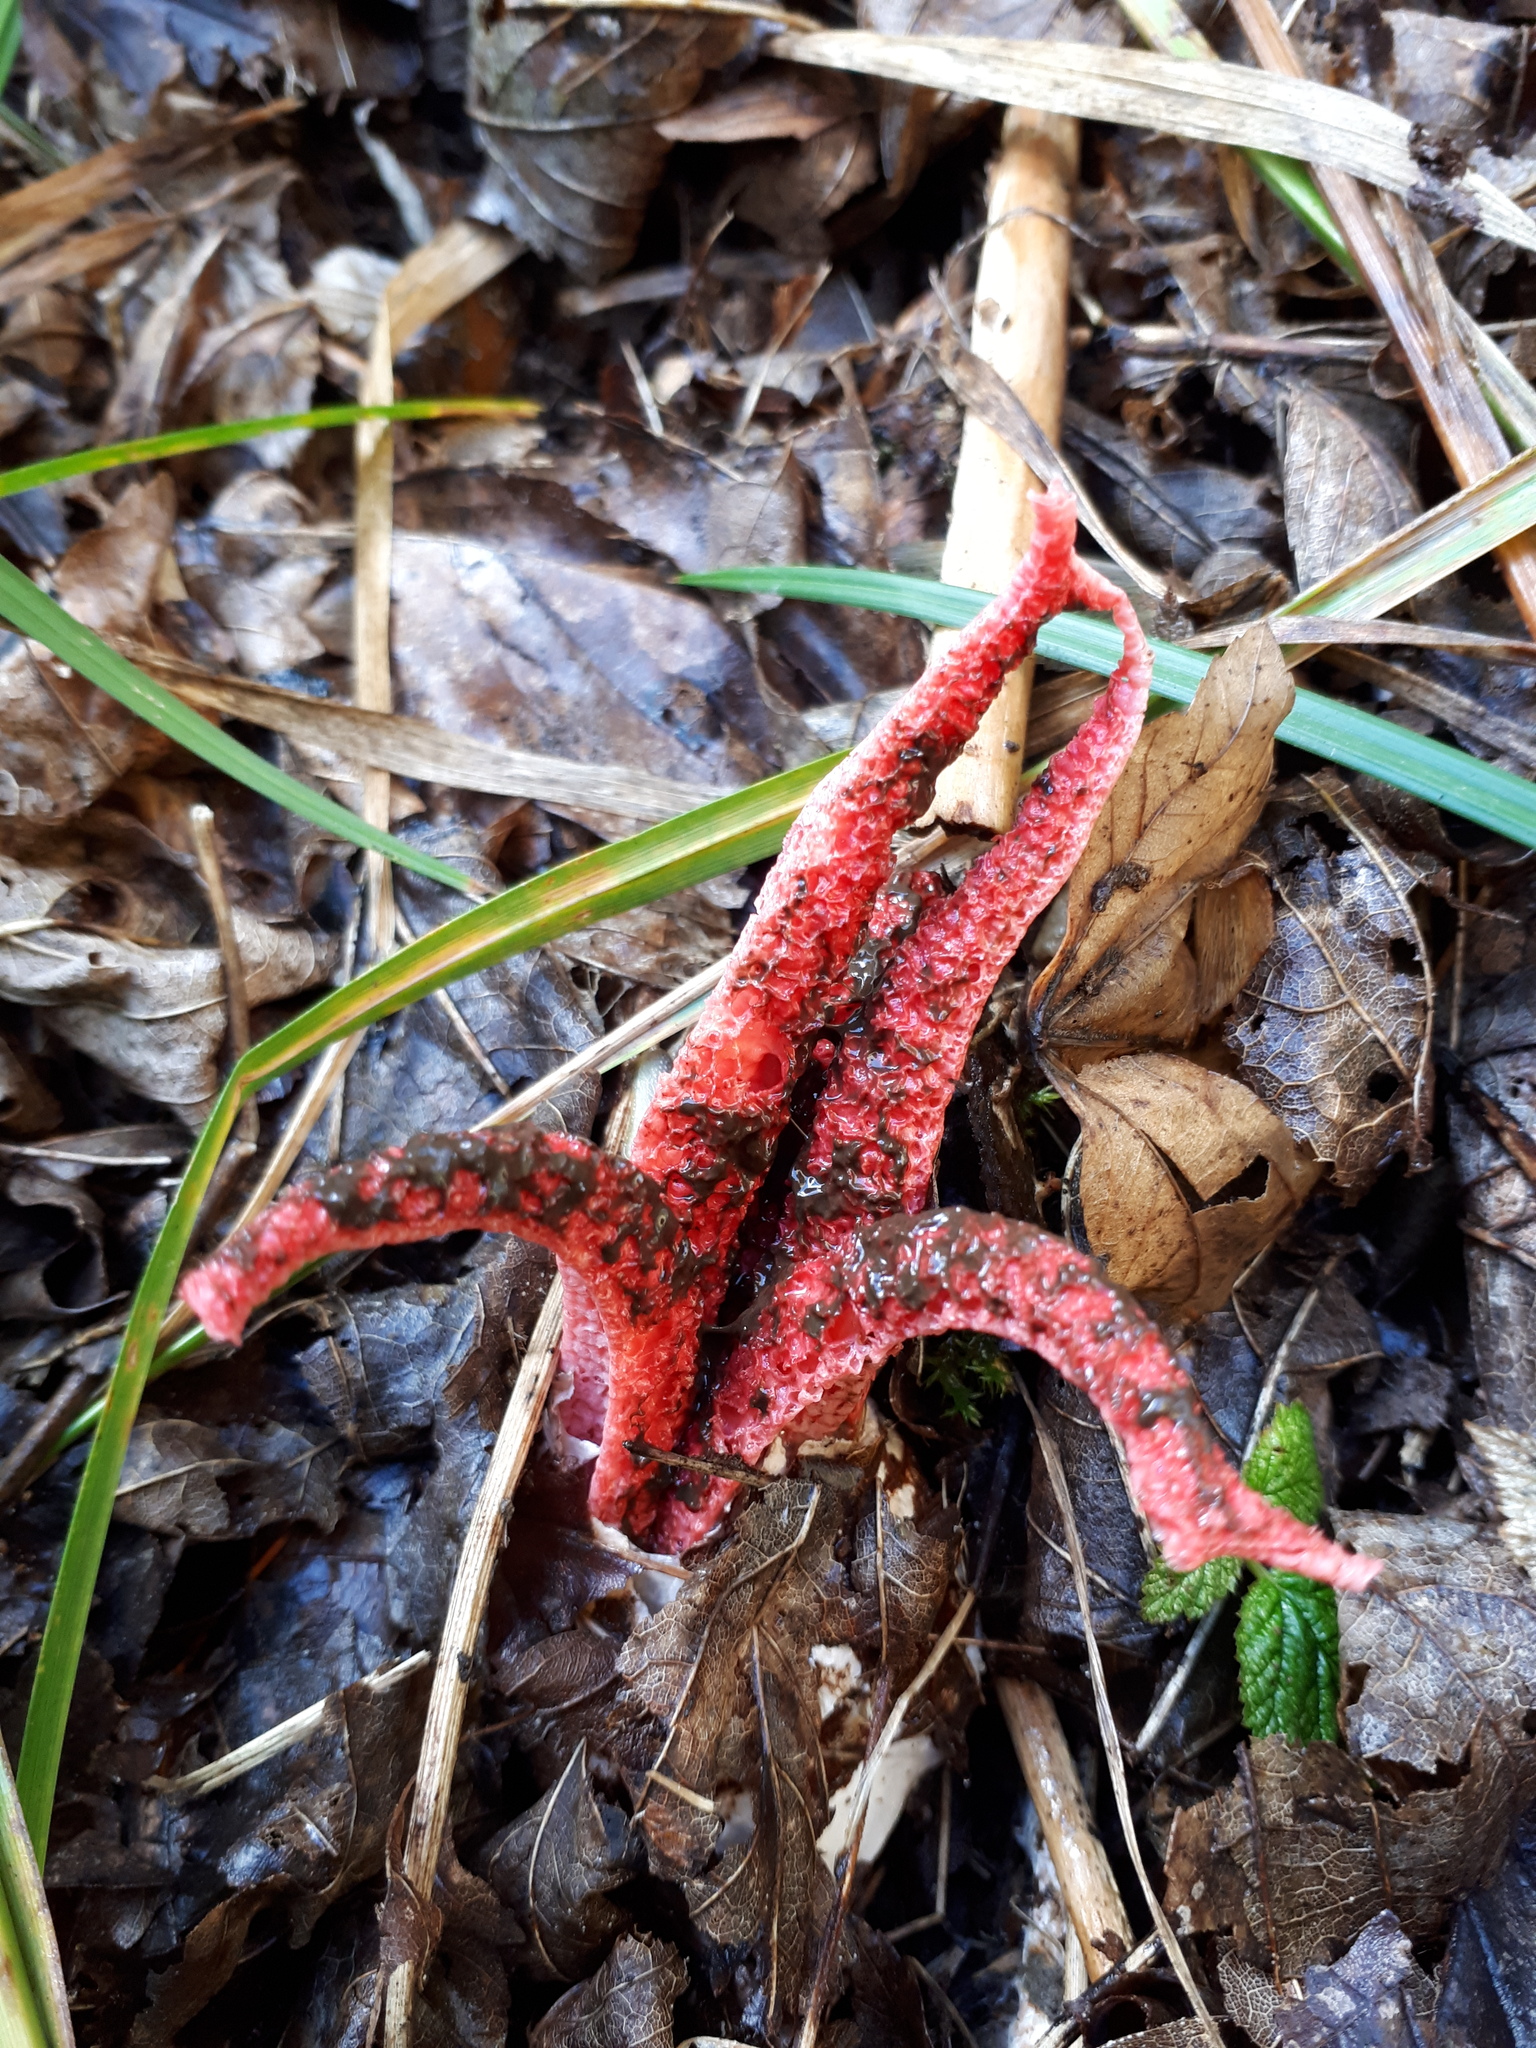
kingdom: Fungi
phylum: Basidiomycota
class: Agaricomycetes
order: Phallales
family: Phallaceae
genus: Clathrus
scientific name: Clathrus archeri
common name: Devil's fingers
